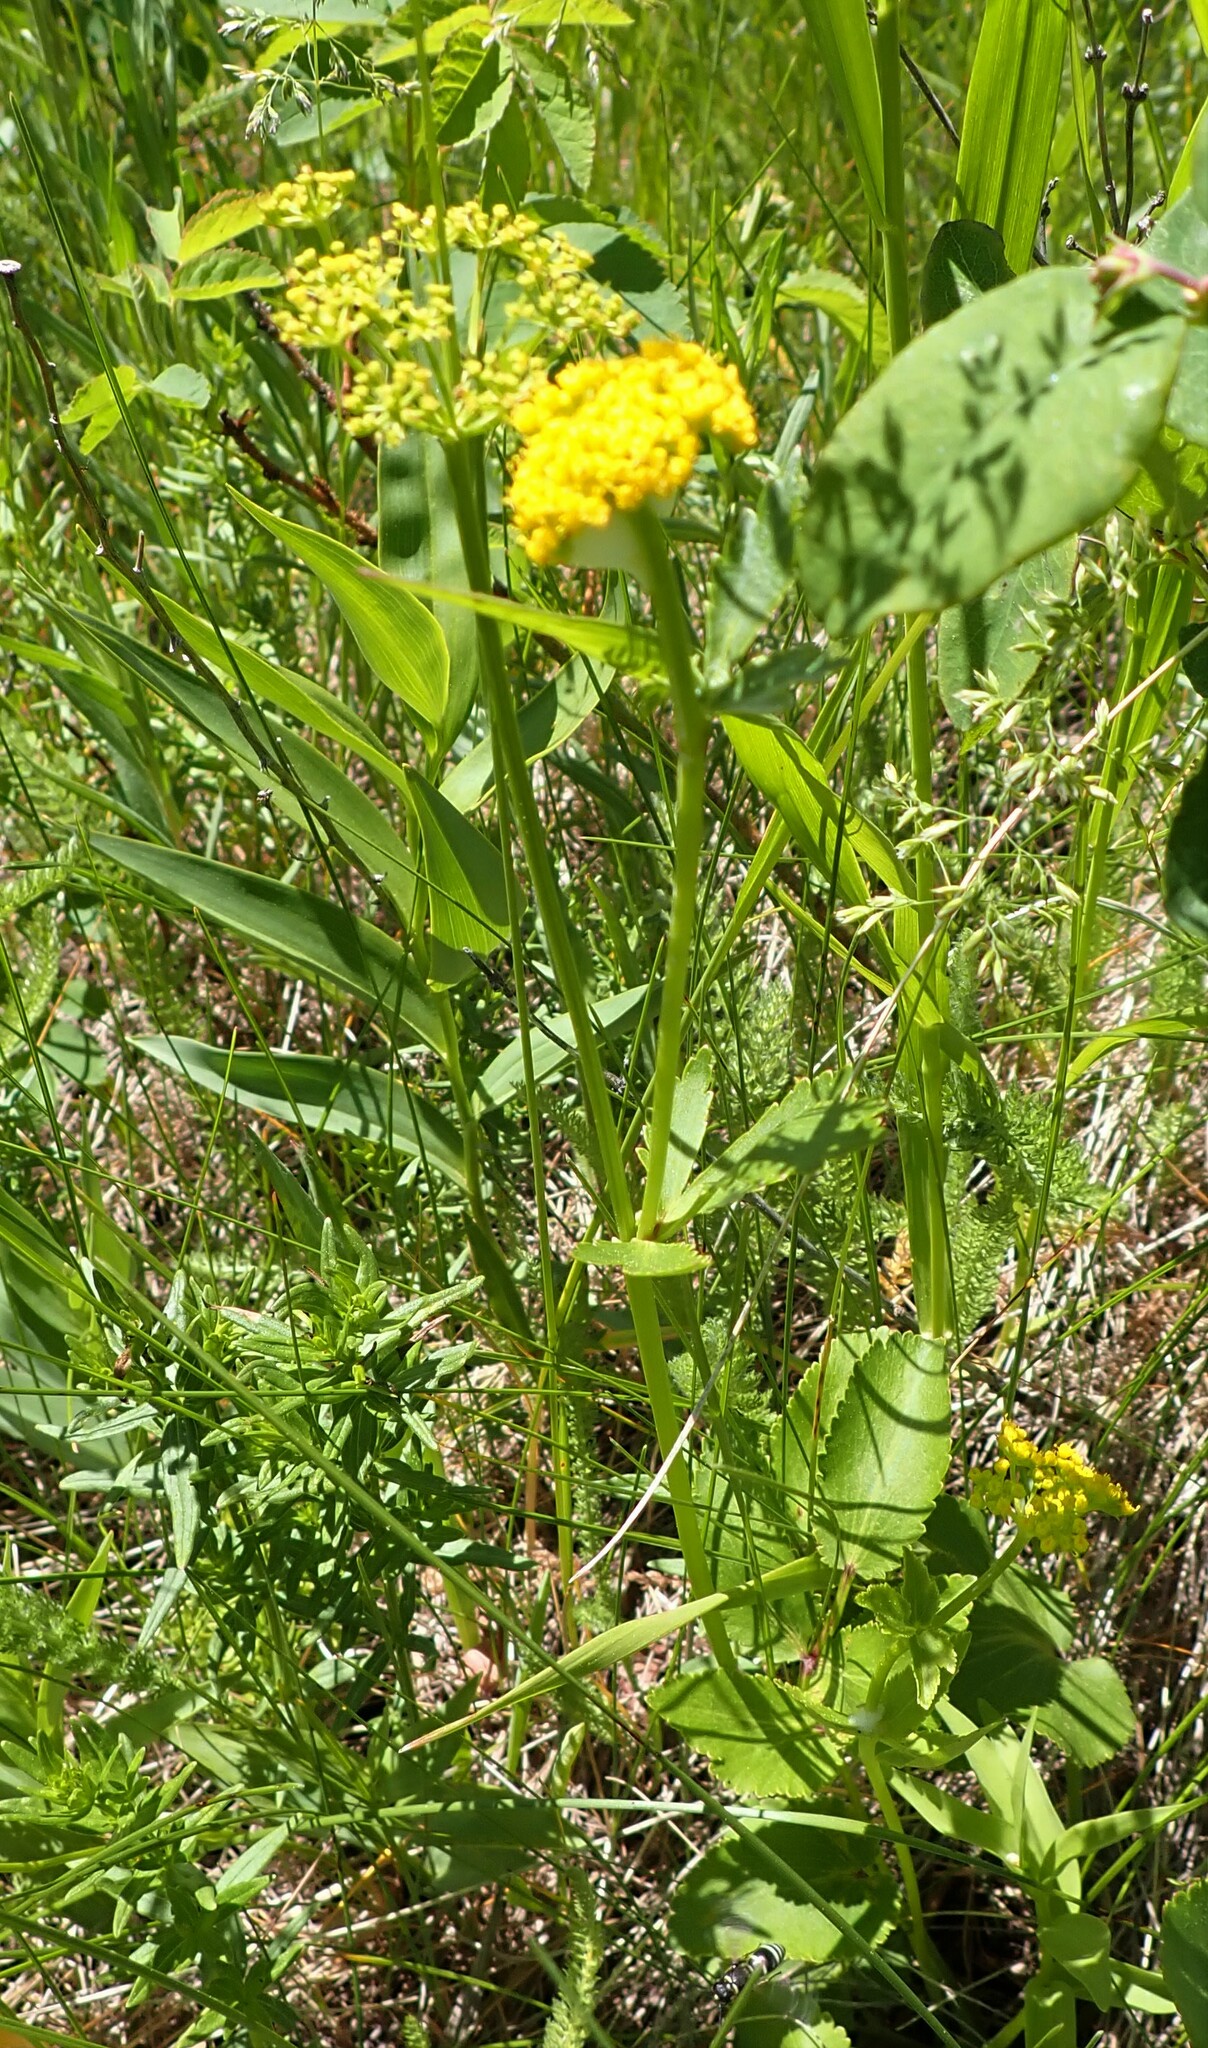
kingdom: Plantae
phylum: Tracheophyta
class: Magnoliopsida
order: Apiales
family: Apiaceae
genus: Zizia
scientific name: Zizia aptera
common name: Heart-leaved alexanders
